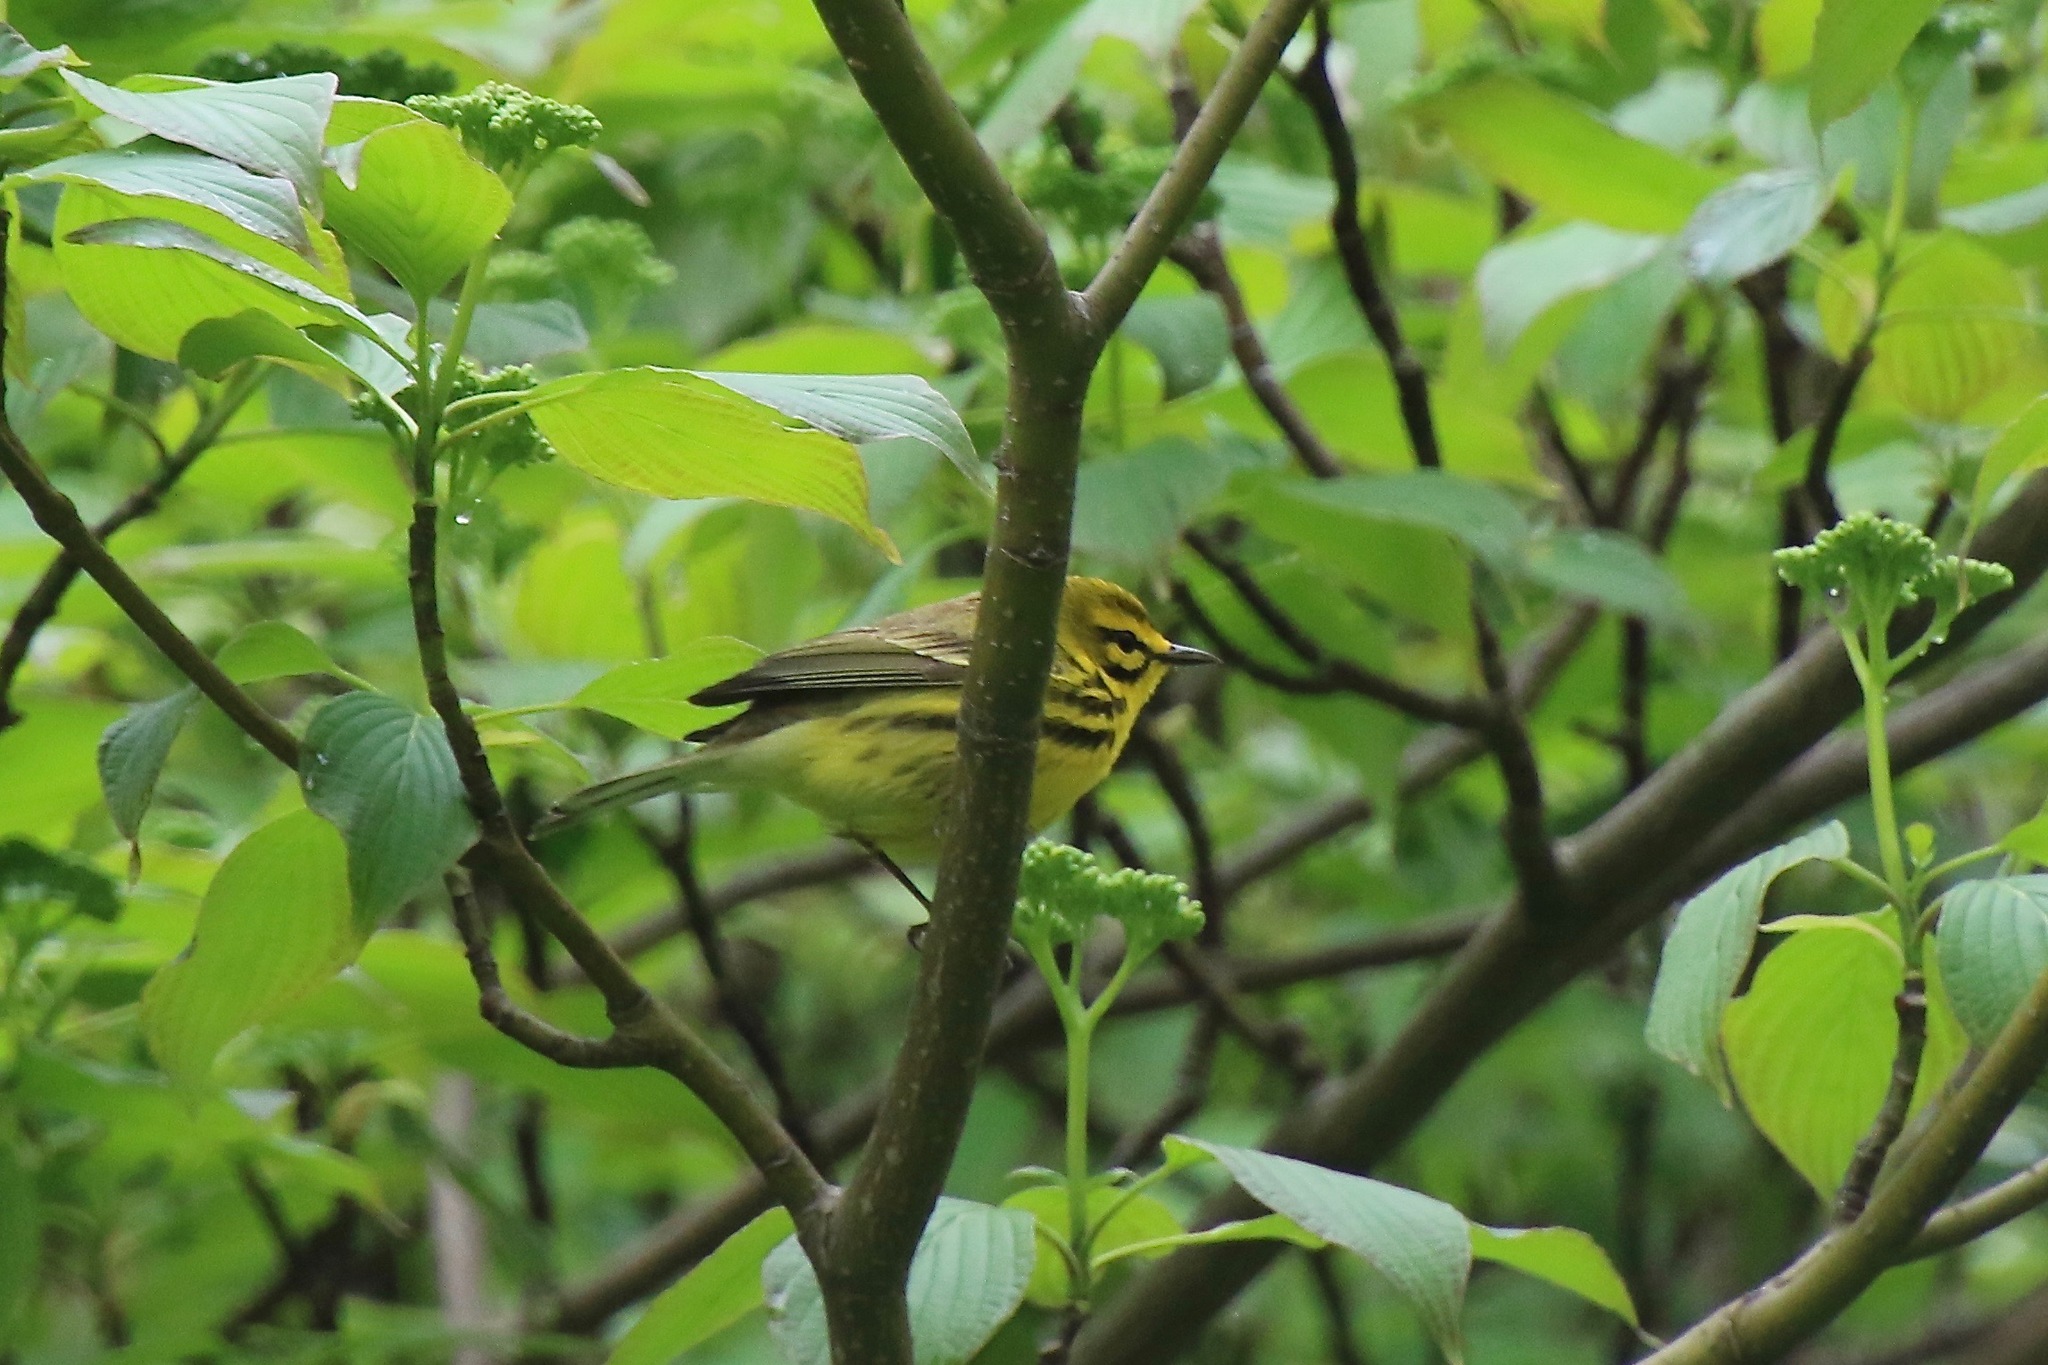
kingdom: Animalia
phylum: Chordata
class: Aves
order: Passeriformes
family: Parulidae
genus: Setophaga
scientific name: Setophaga discolor
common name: Prairie warbler
